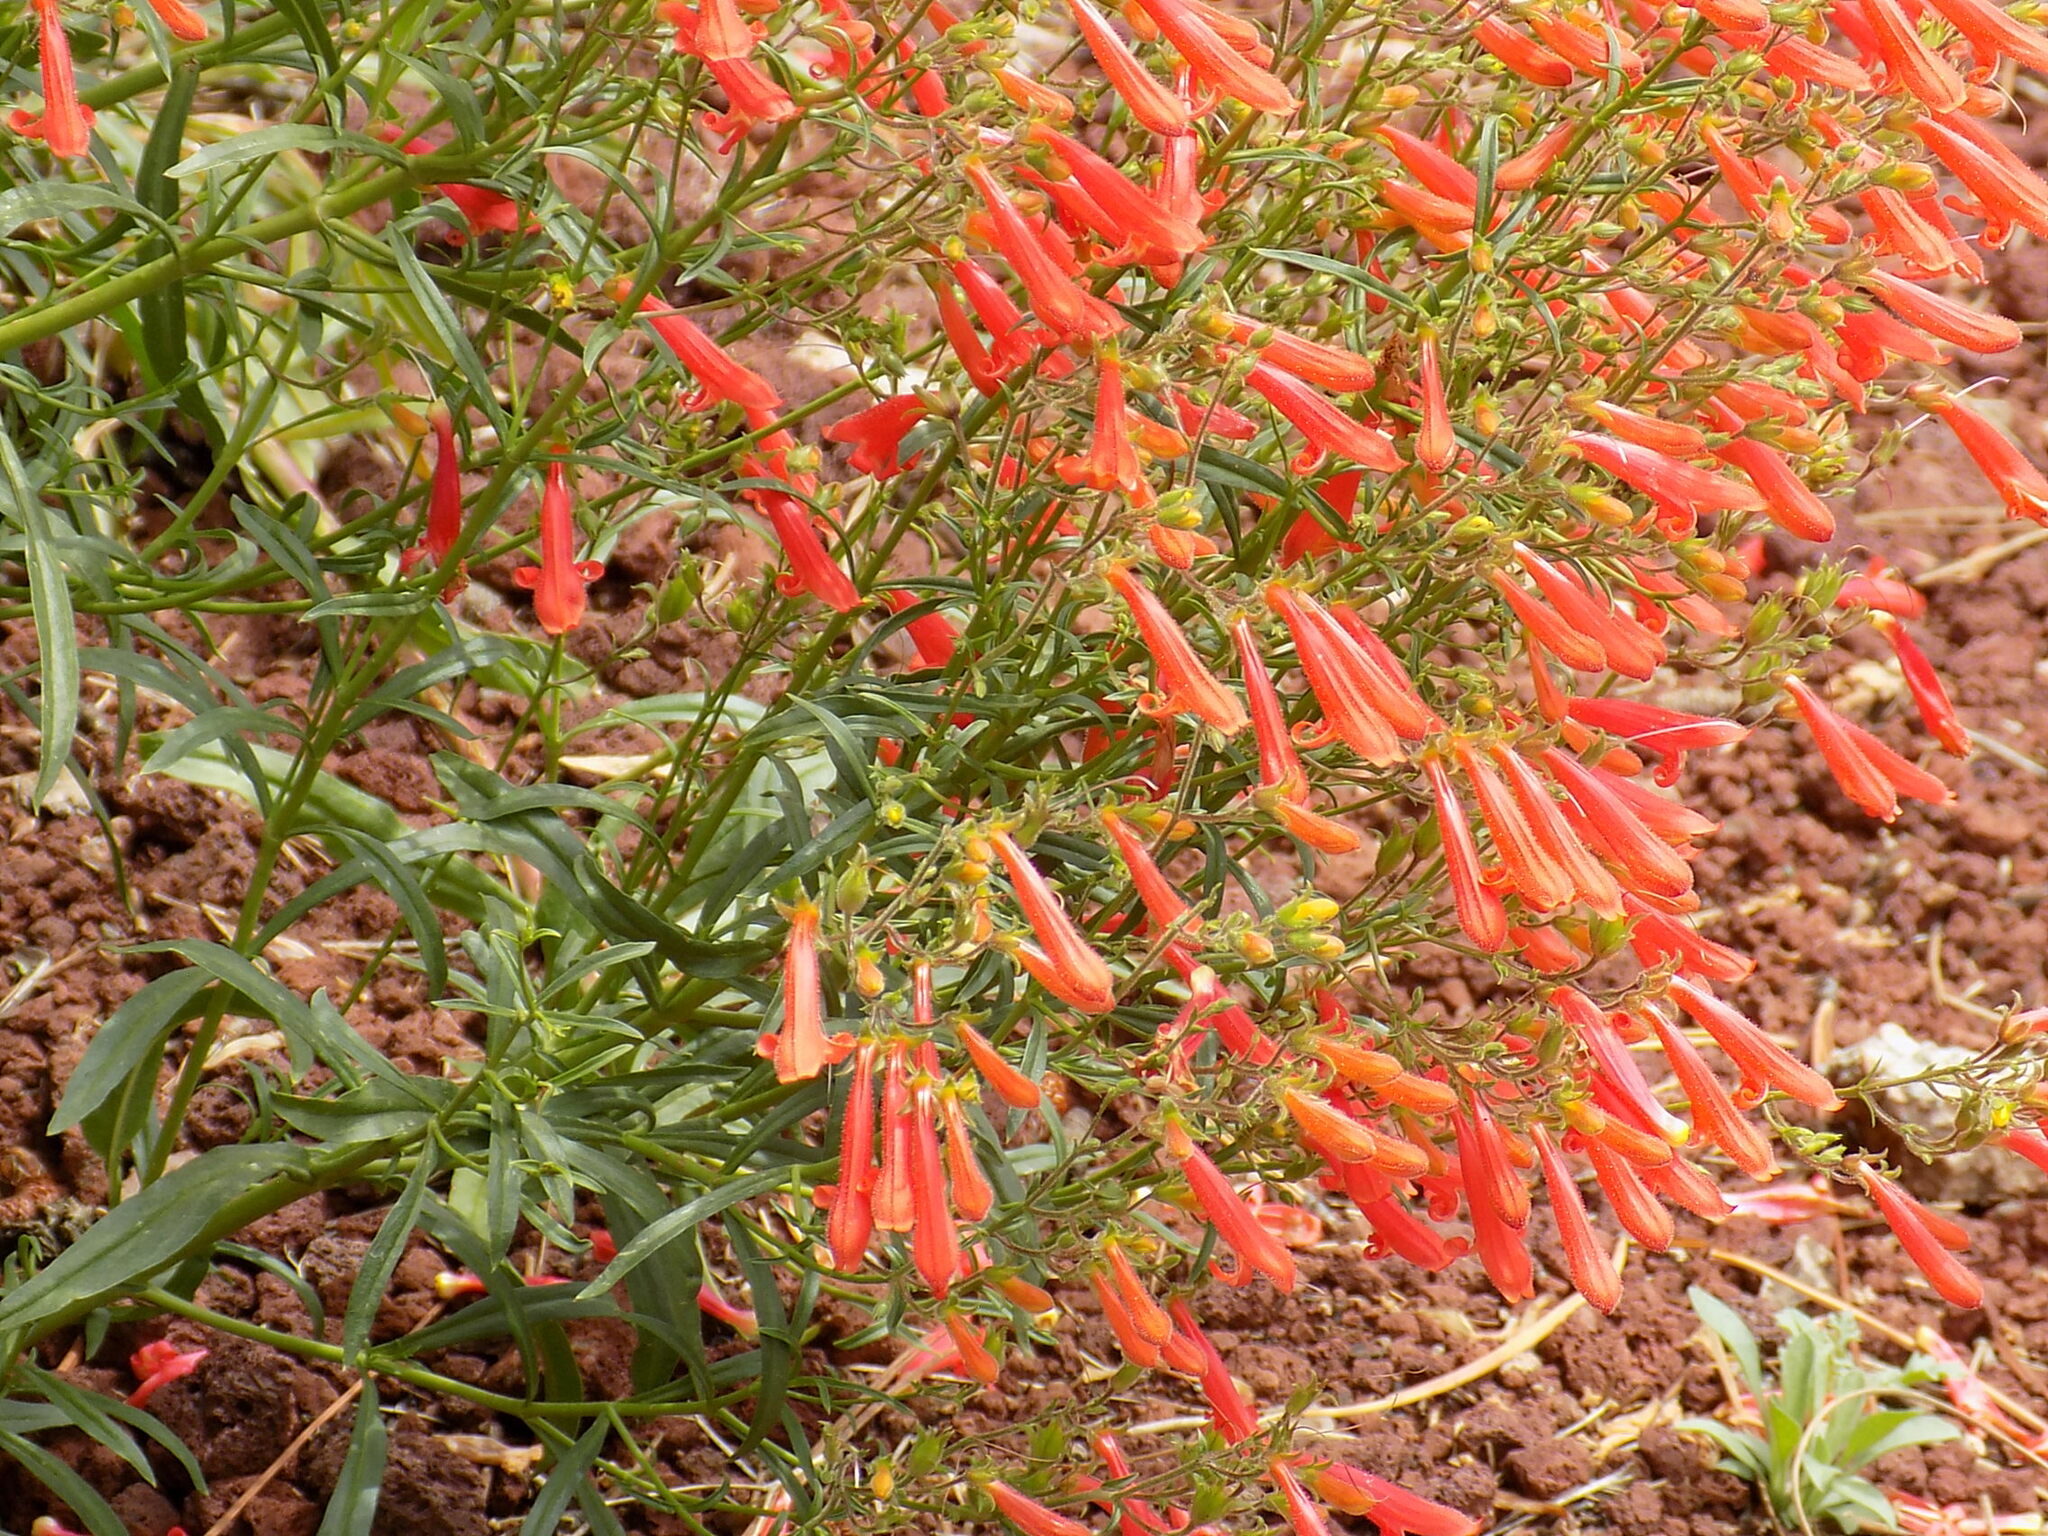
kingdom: Plantae
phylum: Tracheophyta
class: Magnoliopsida
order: Lamiales
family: Plantaginaceae
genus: Penstemon
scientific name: Penstemon rostriflorus
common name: Bridges's penstemon
